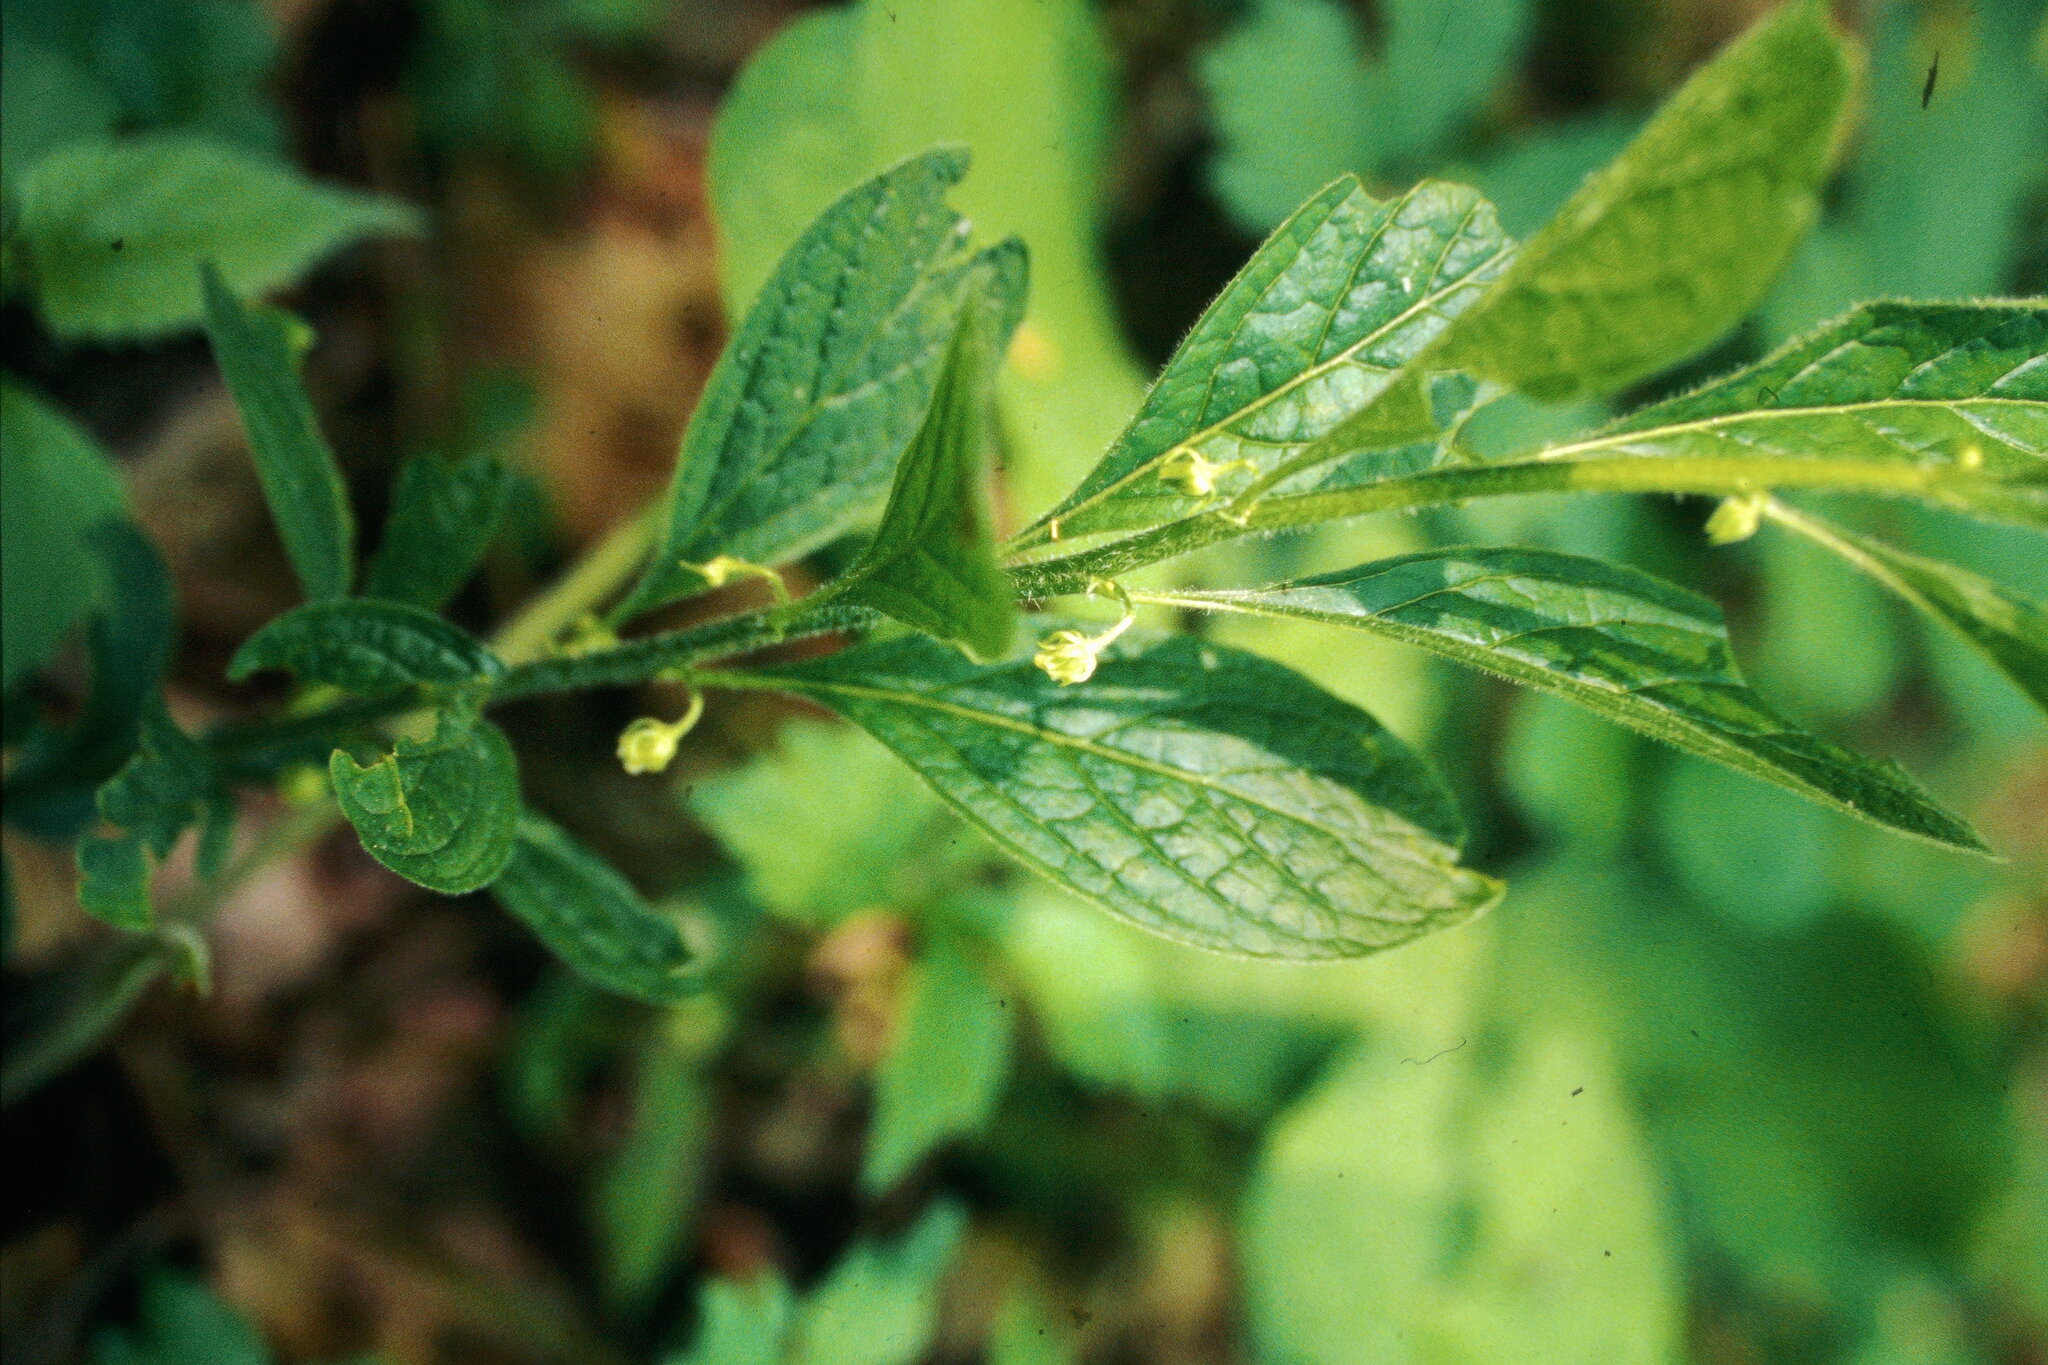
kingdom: Plantae
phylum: Tracheophyta
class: Magnoliopsida
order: Malpighiales
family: Violaceae
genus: Cubelium
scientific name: Cubelium concolor
